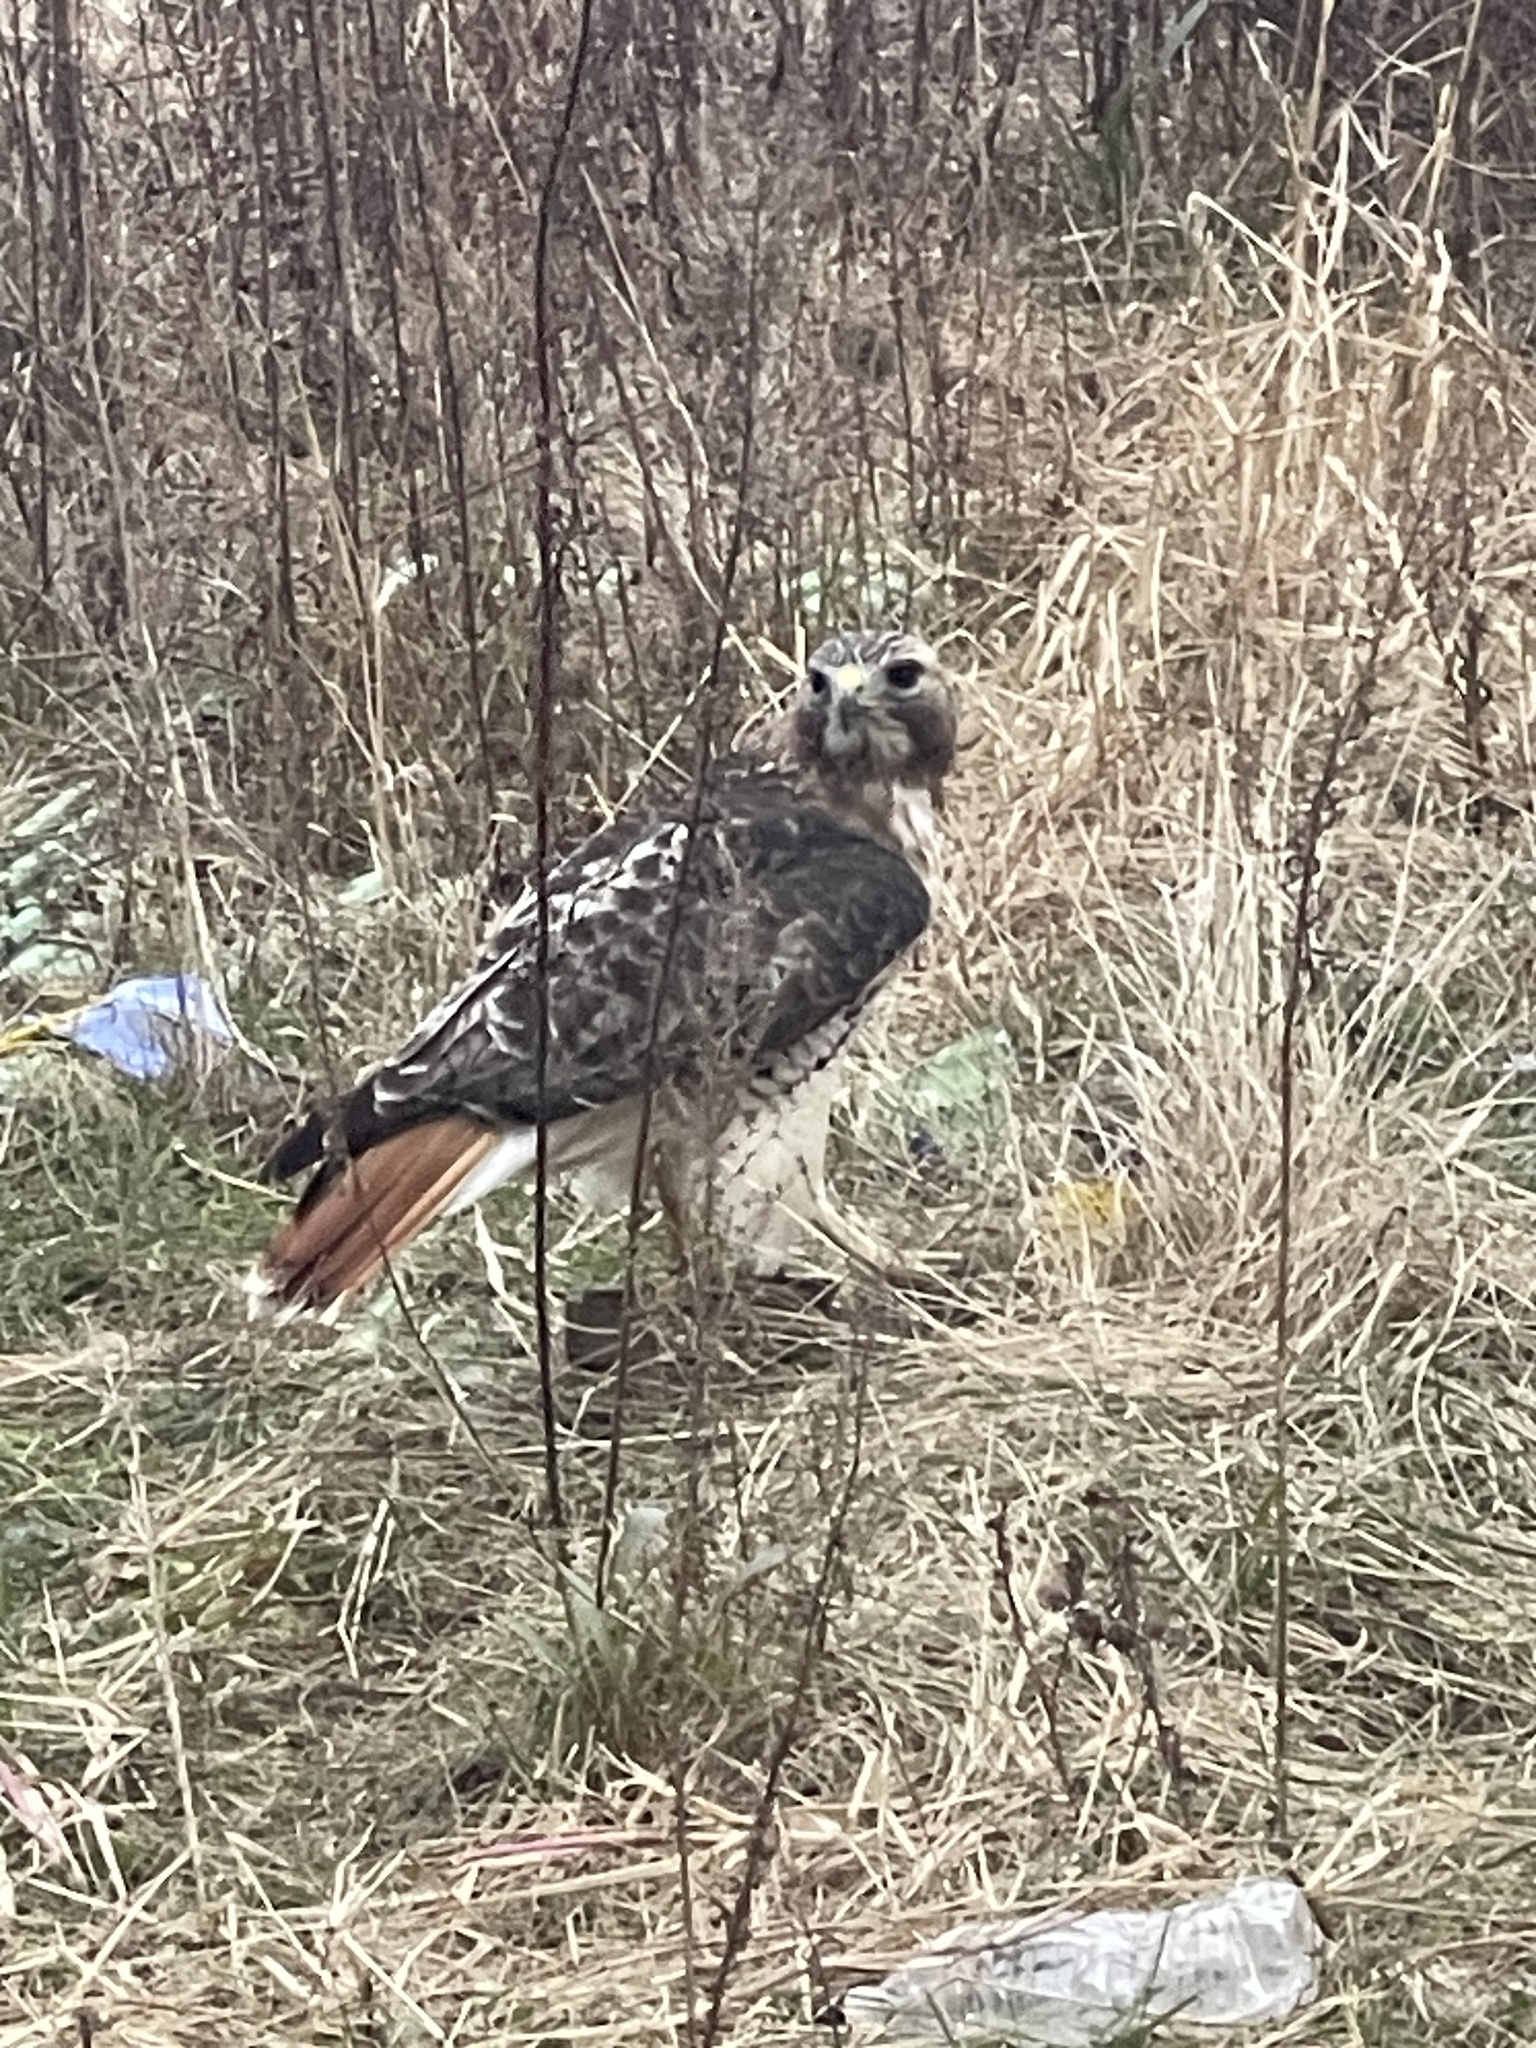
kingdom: Animalia
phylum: Chordata
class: Aves
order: Accipitriformes
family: Accipitridae
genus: Buteo
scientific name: Buteo jamaicensis
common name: Red-tailed hawk
